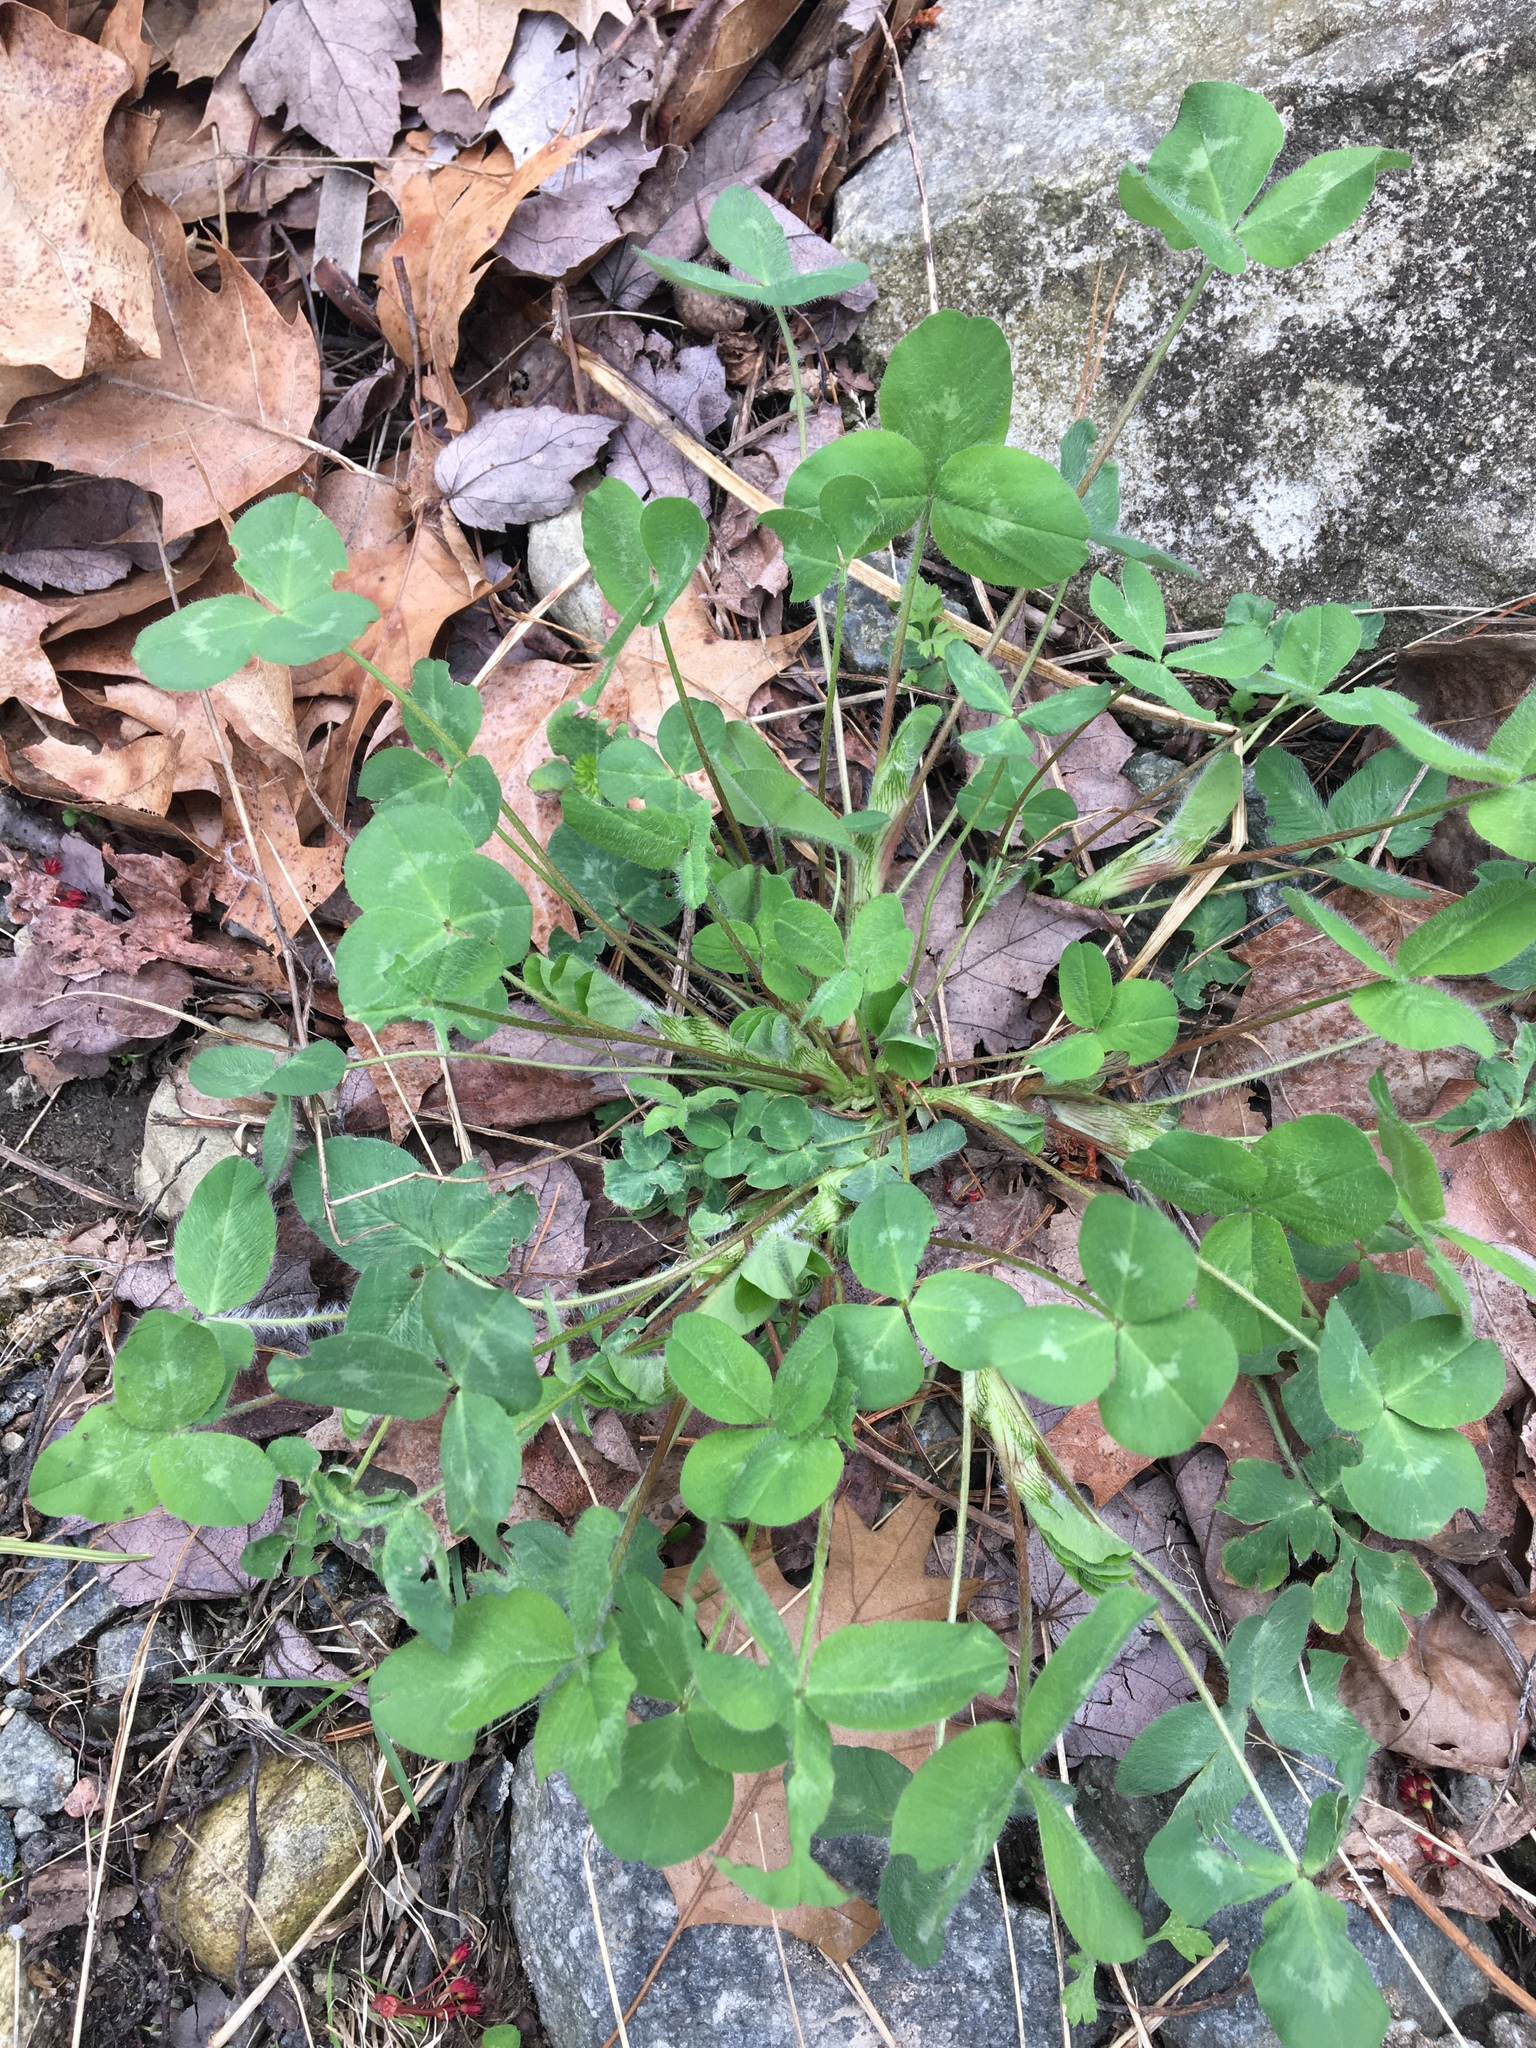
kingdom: Plantae
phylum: Tracheophyta
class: Magnoliopsida
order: Fabales
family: Fabaceae
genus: Trifolium
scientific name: Trifolium pratense
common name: Red clover
